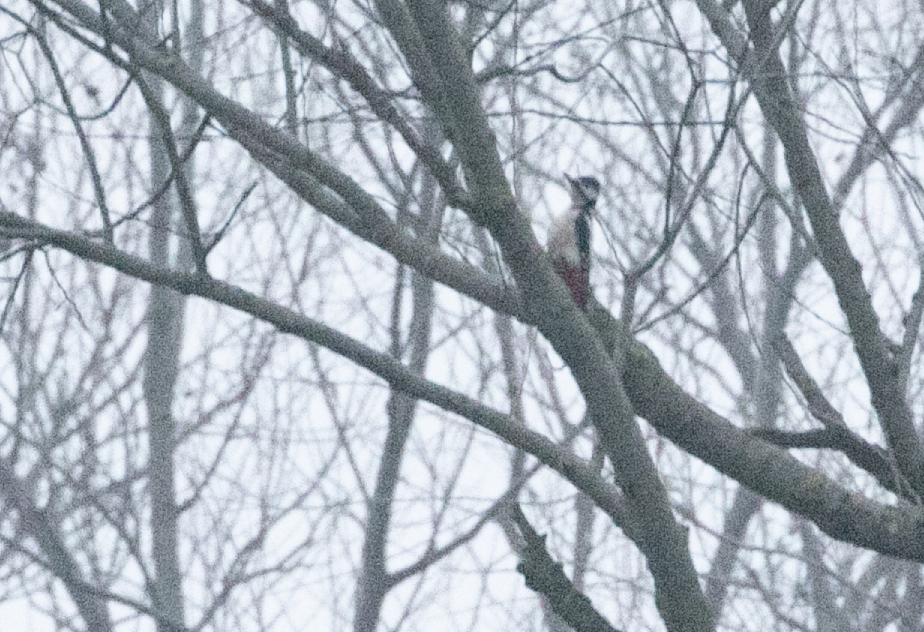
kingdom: Animalia
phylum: Chordata
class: Aves
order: Piciformes
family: Picidae
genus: Dendrocopos
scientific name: Dendrocopos major
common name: Great spotted woodpecker
